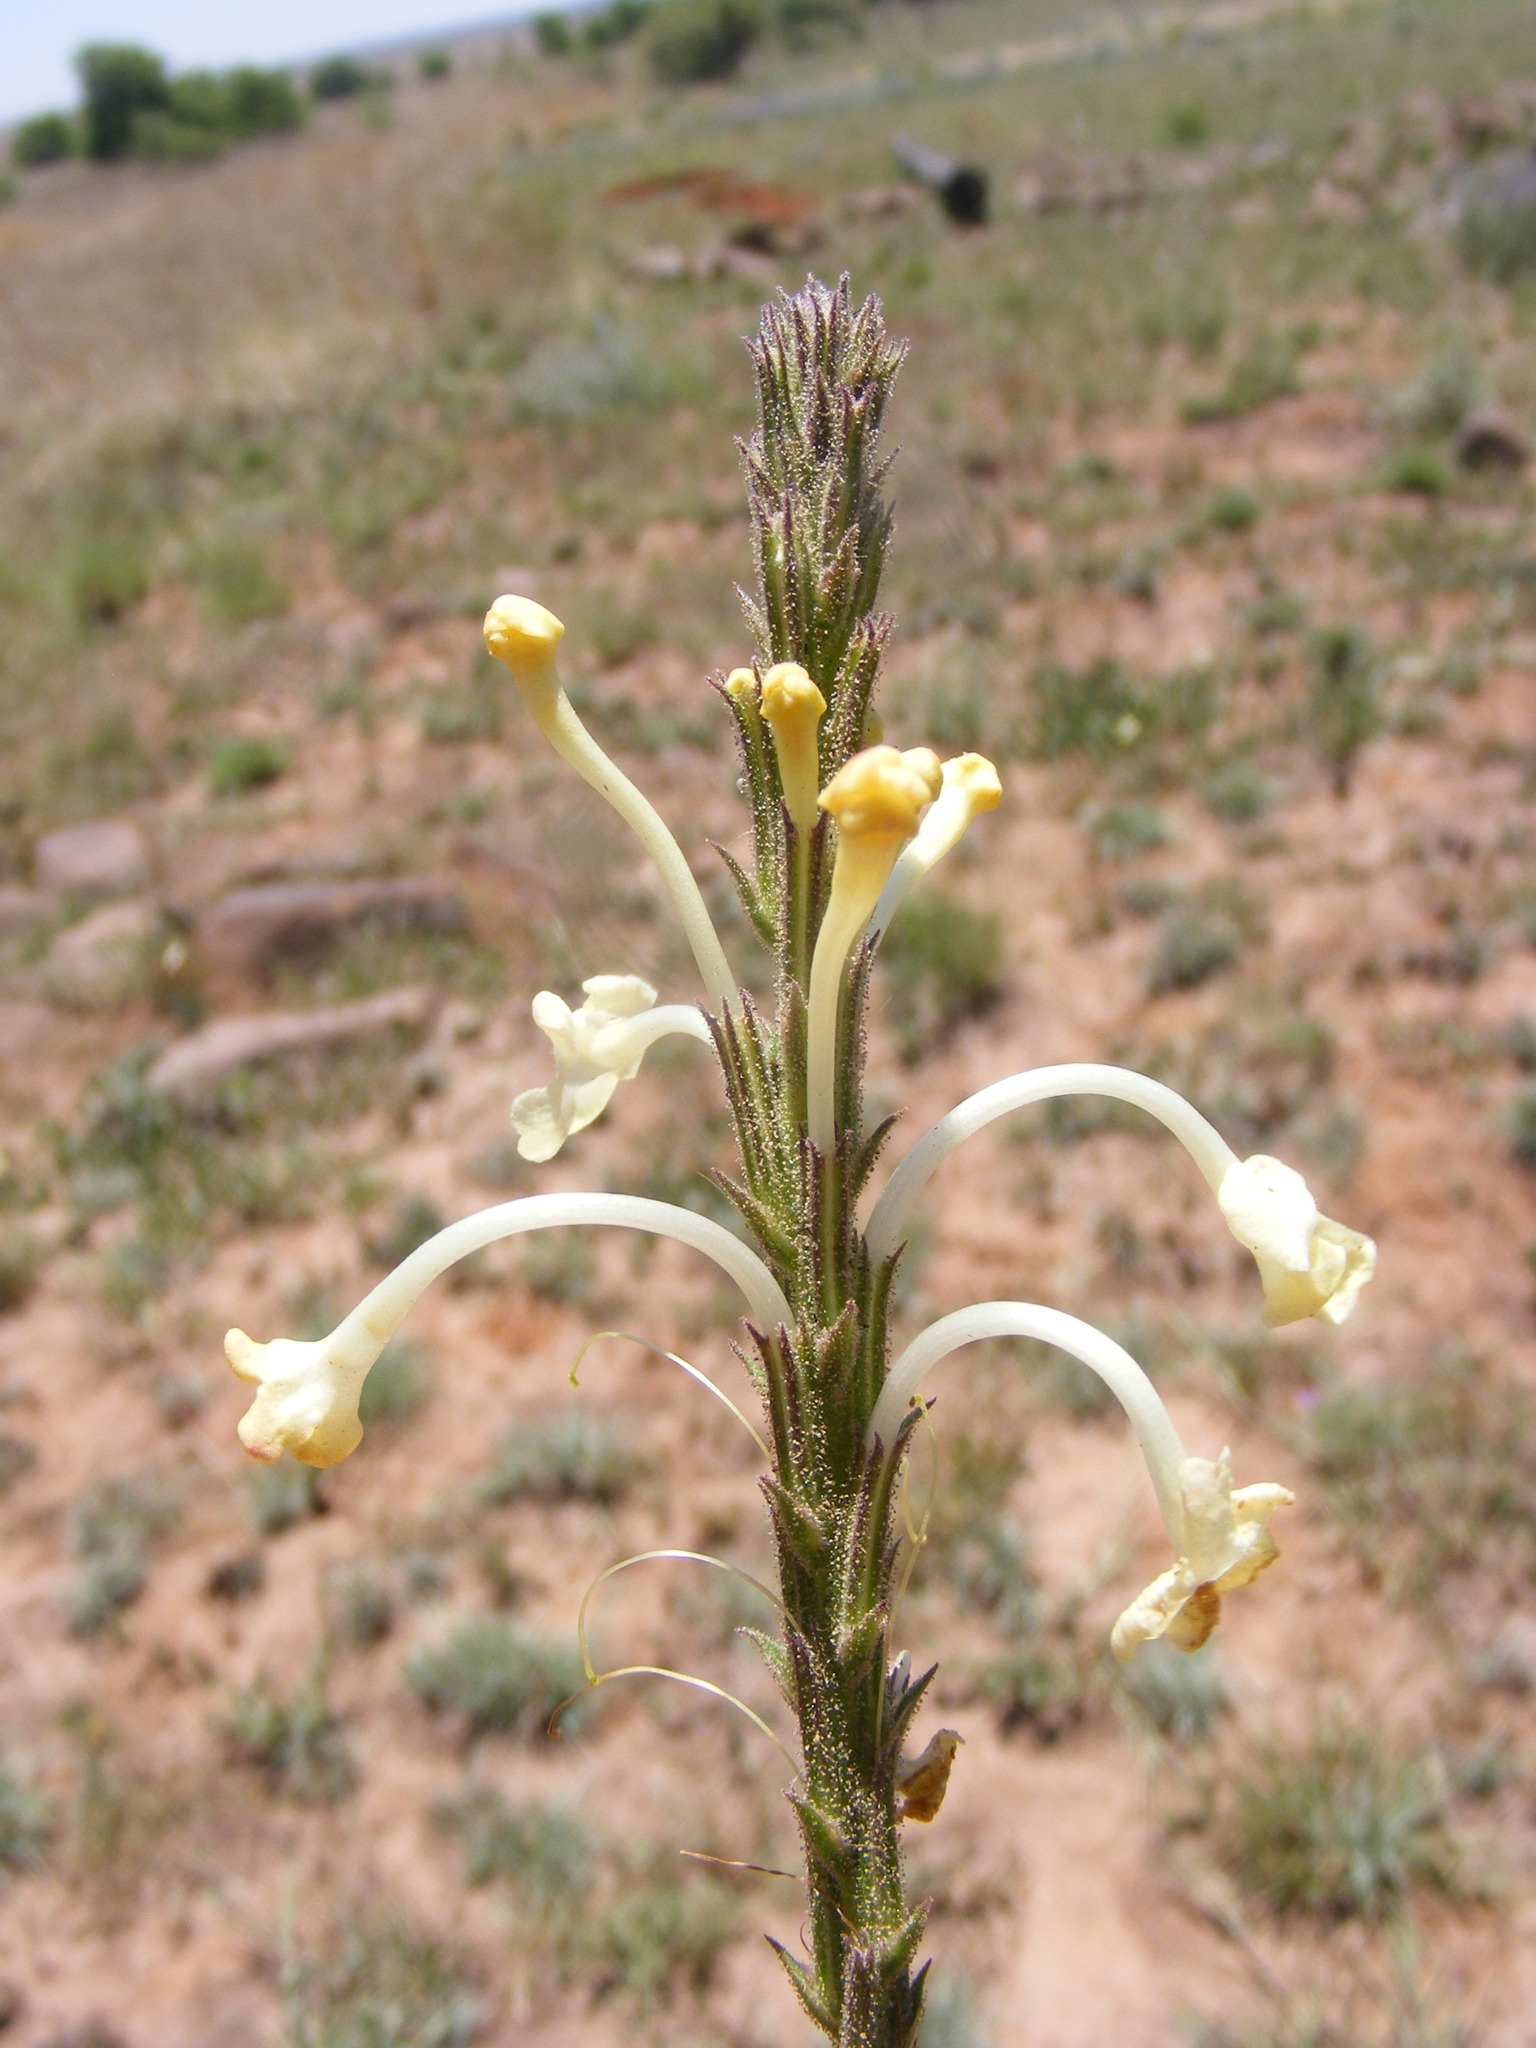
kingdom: Plantae
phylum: Tracheophyta
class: Magnoliopsida
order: Lamiales
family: Verbenaceae
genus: Chascanum
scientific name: Chascanum hederaceum
